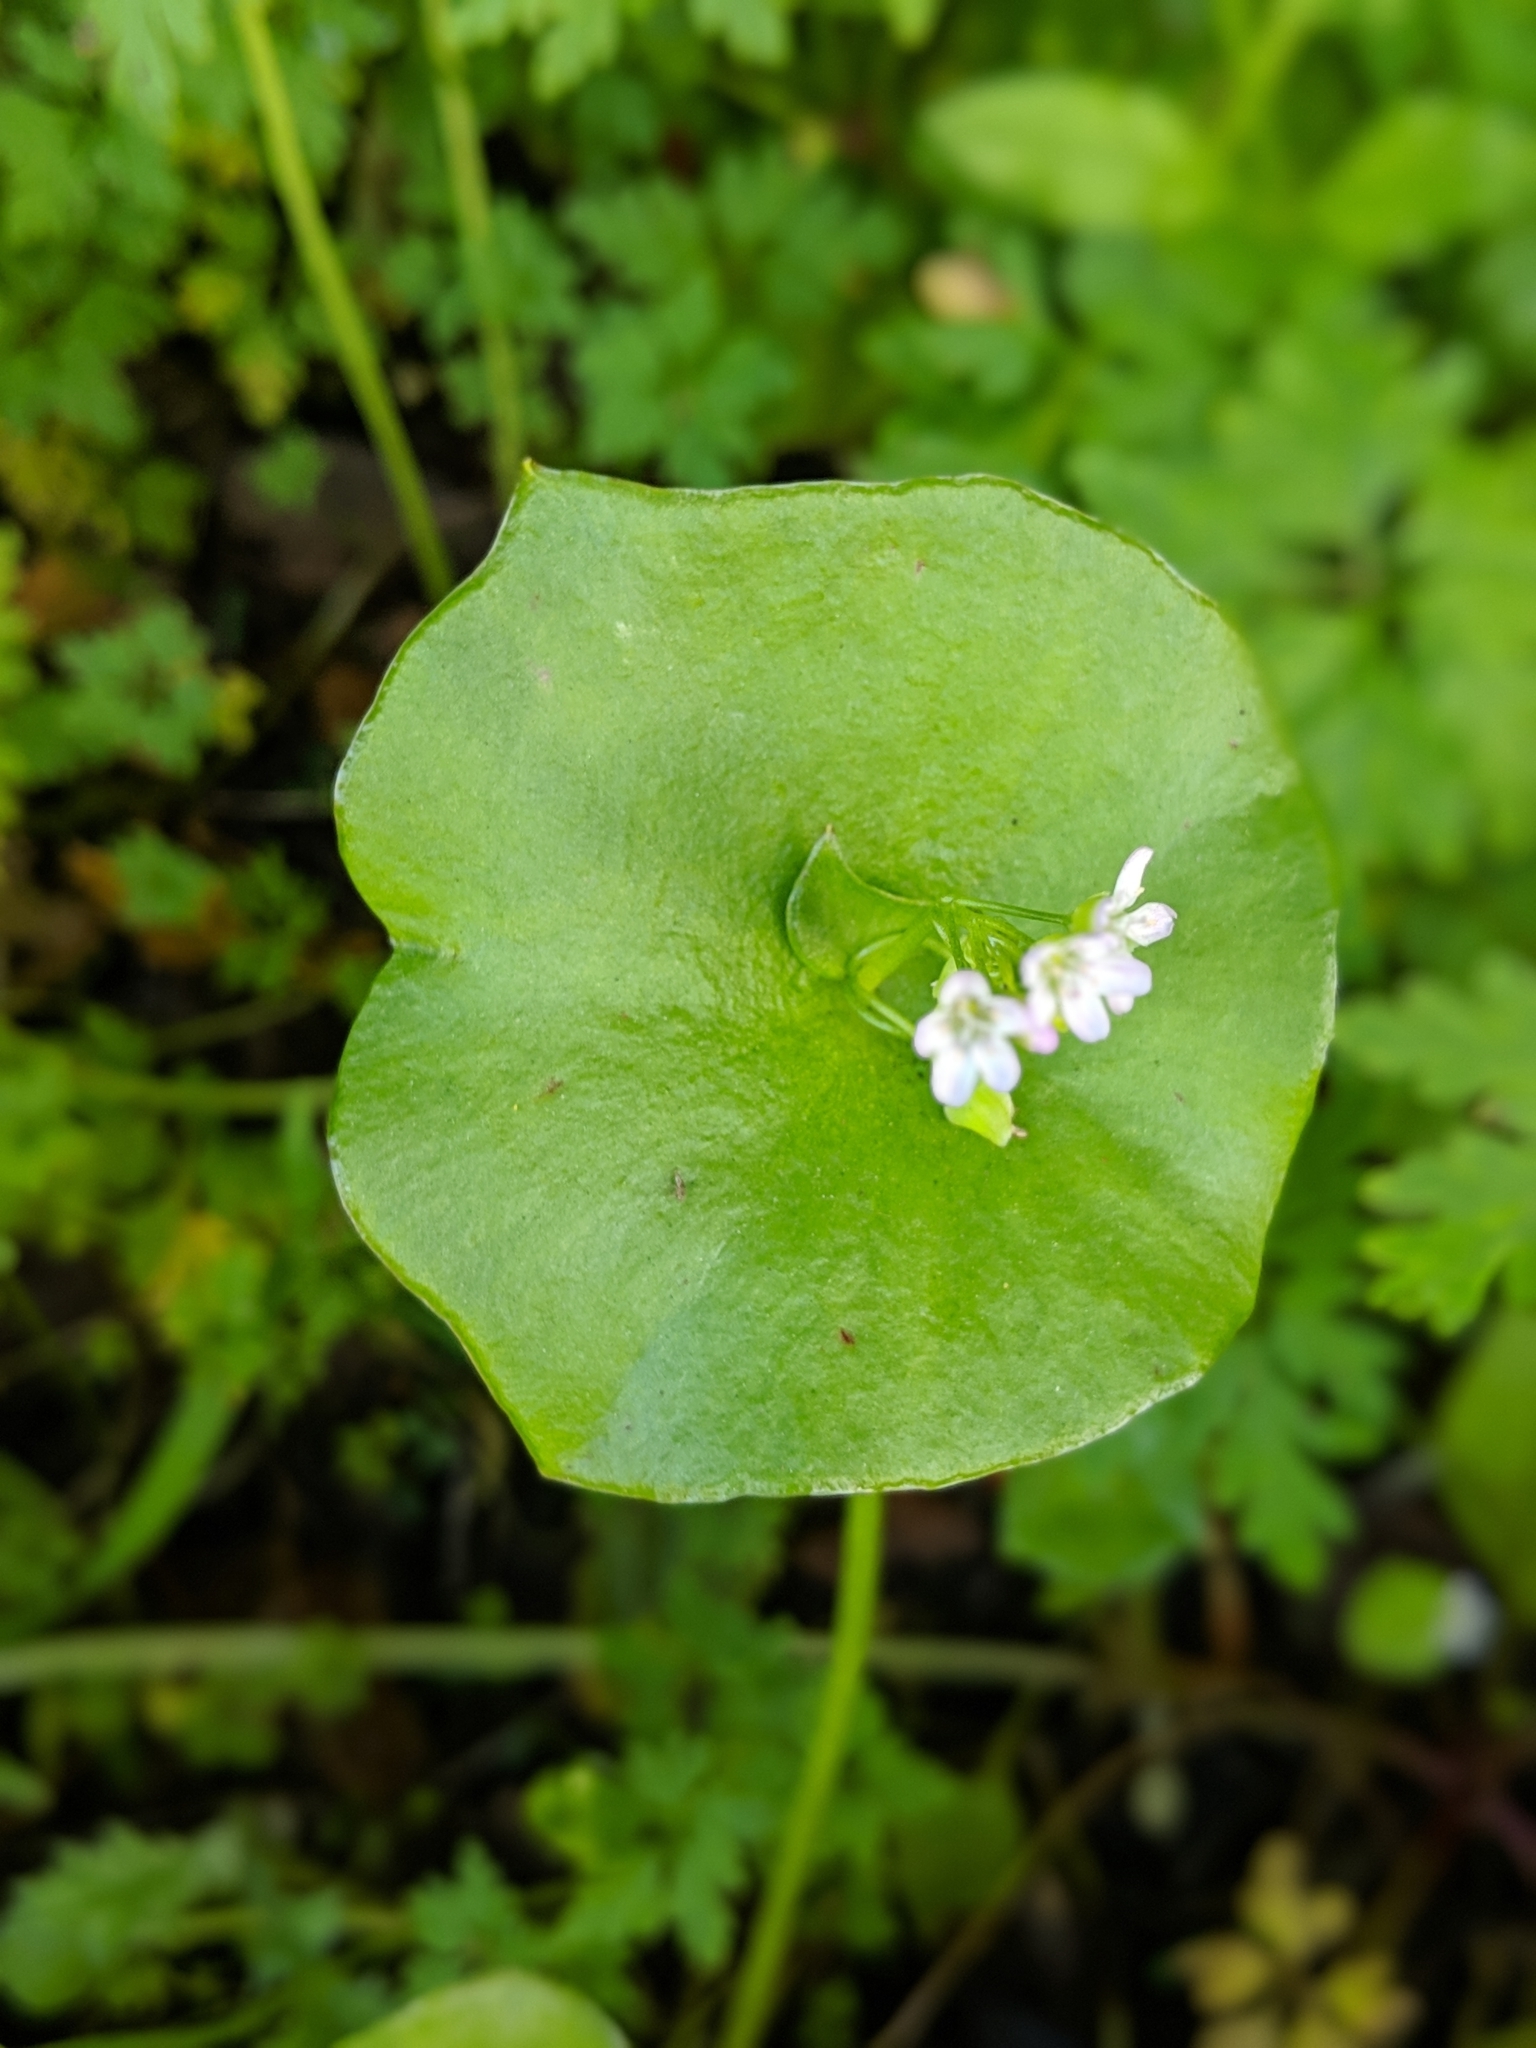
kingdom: Plantae
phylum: Tracheophyta
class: Magnoliopsida
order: Caryophyllales
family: Montiaceae
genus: Claytonia
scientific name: Claytonia perfoliata
